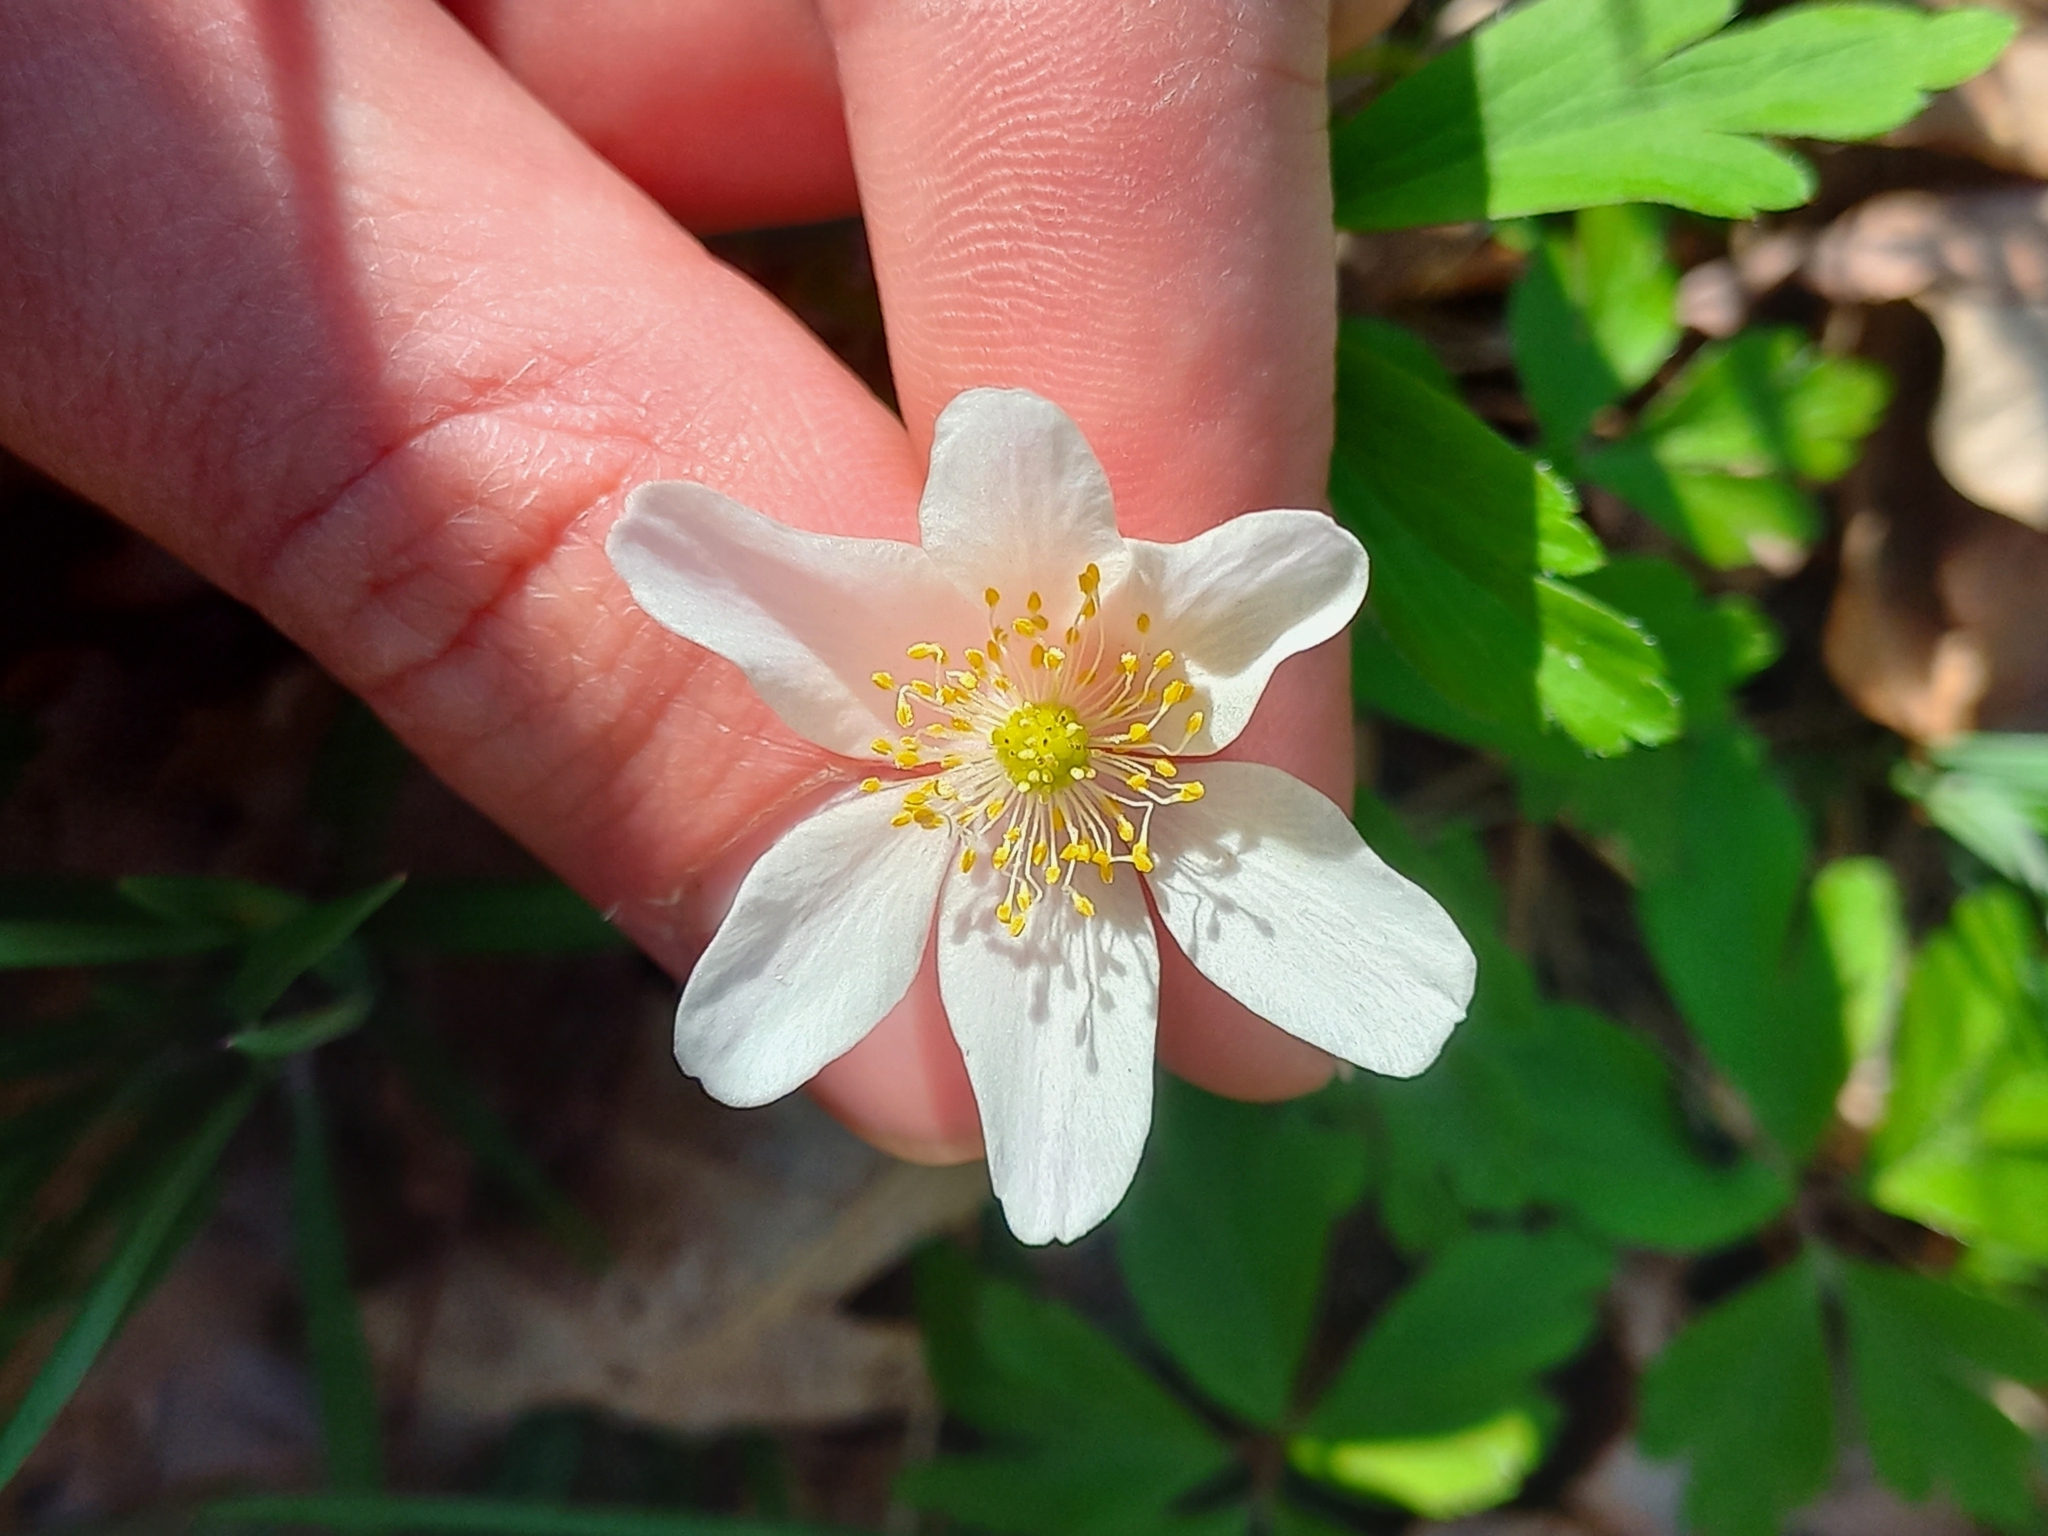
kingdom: Plantae
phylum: Tracheophyta
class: Magnoliopsida
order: Ranunculales
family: Ranunculaceae
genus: Anemone
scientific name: Anemone nemorosa
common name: Wood anemone
